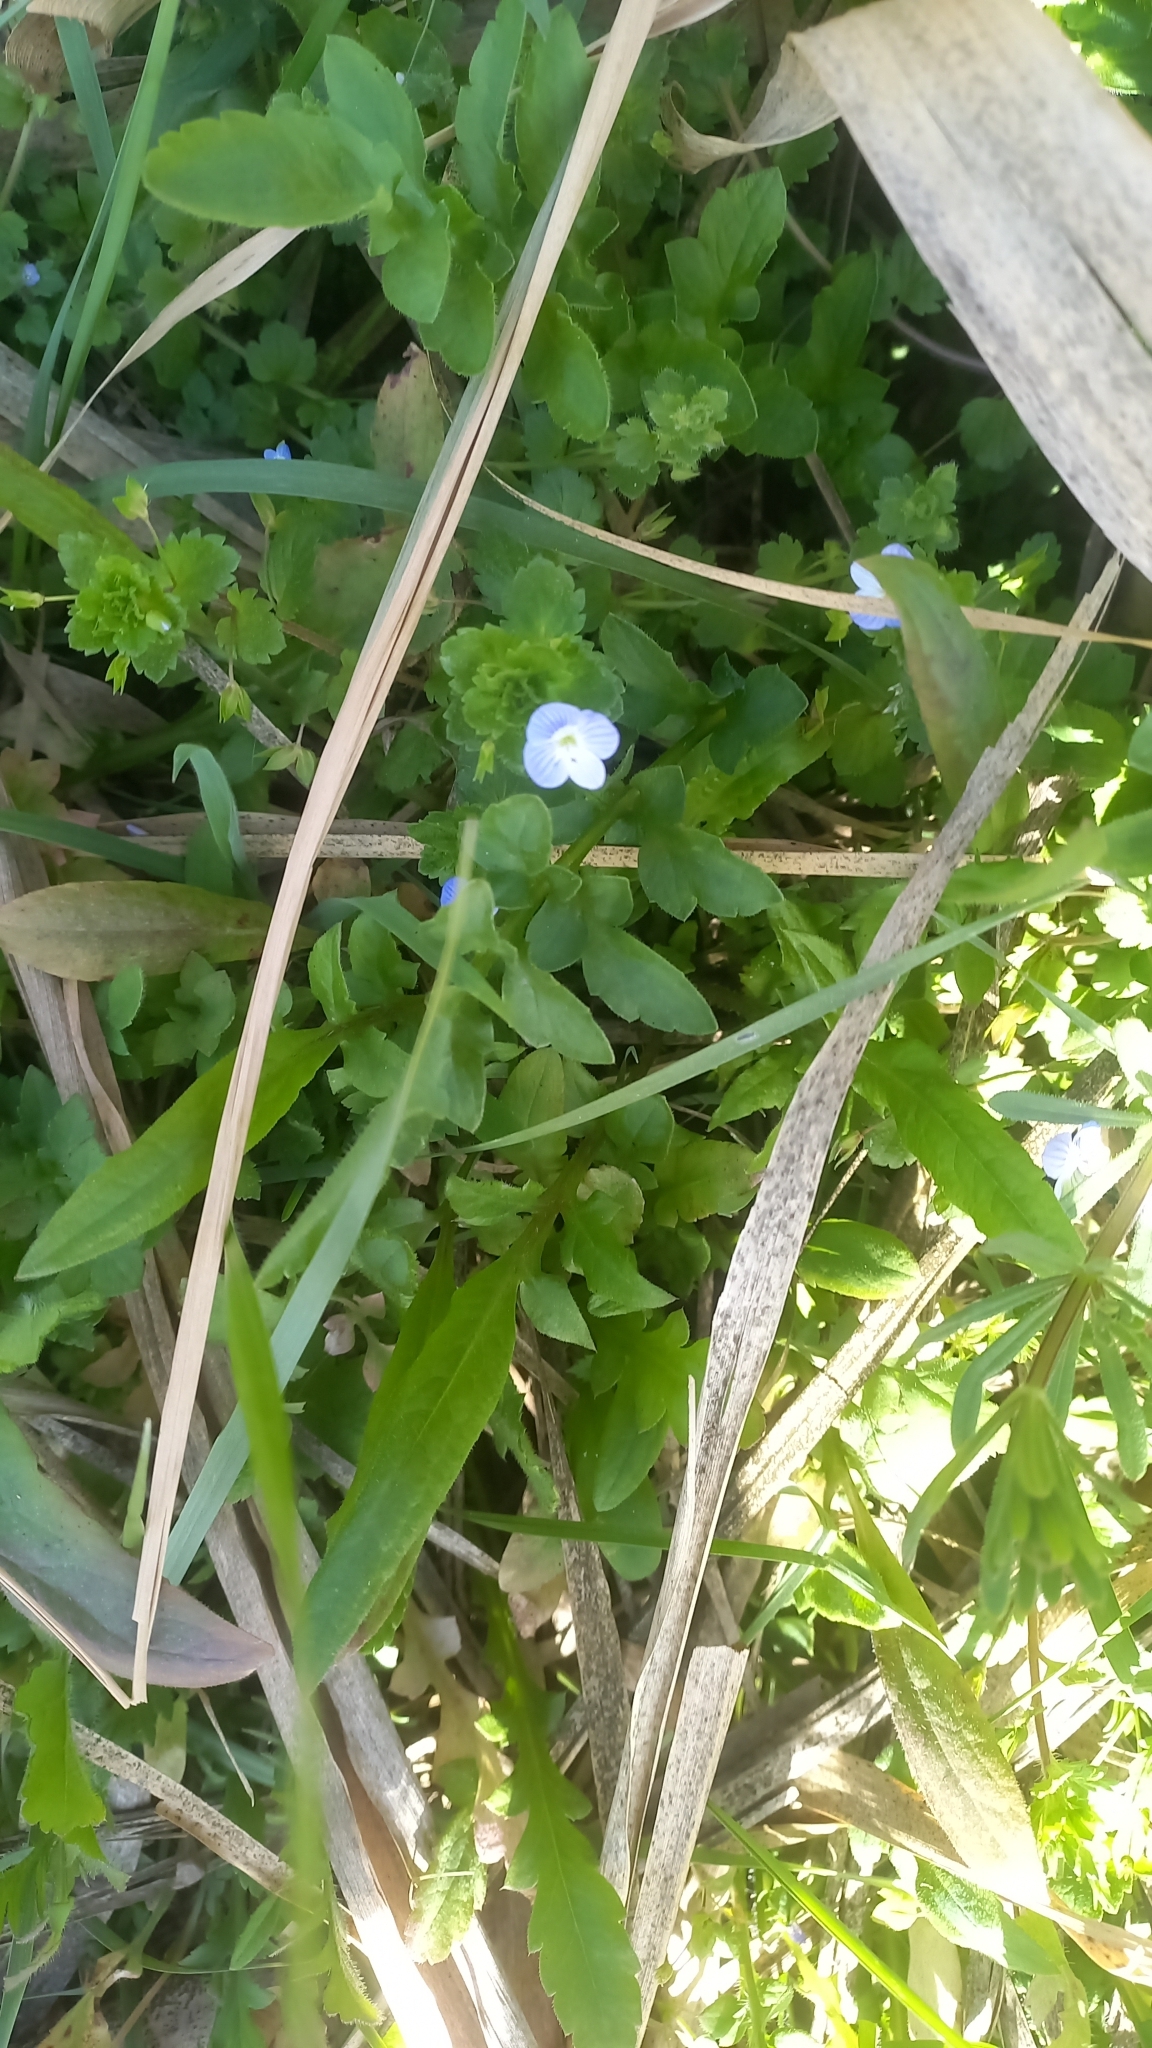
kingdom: Plantae
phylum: Tracheophyta
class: Magnoliopsida
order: Lamiales
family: Plantaginaceae
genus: Veronica
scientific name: Veronica persica
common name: Common field-speedwell
